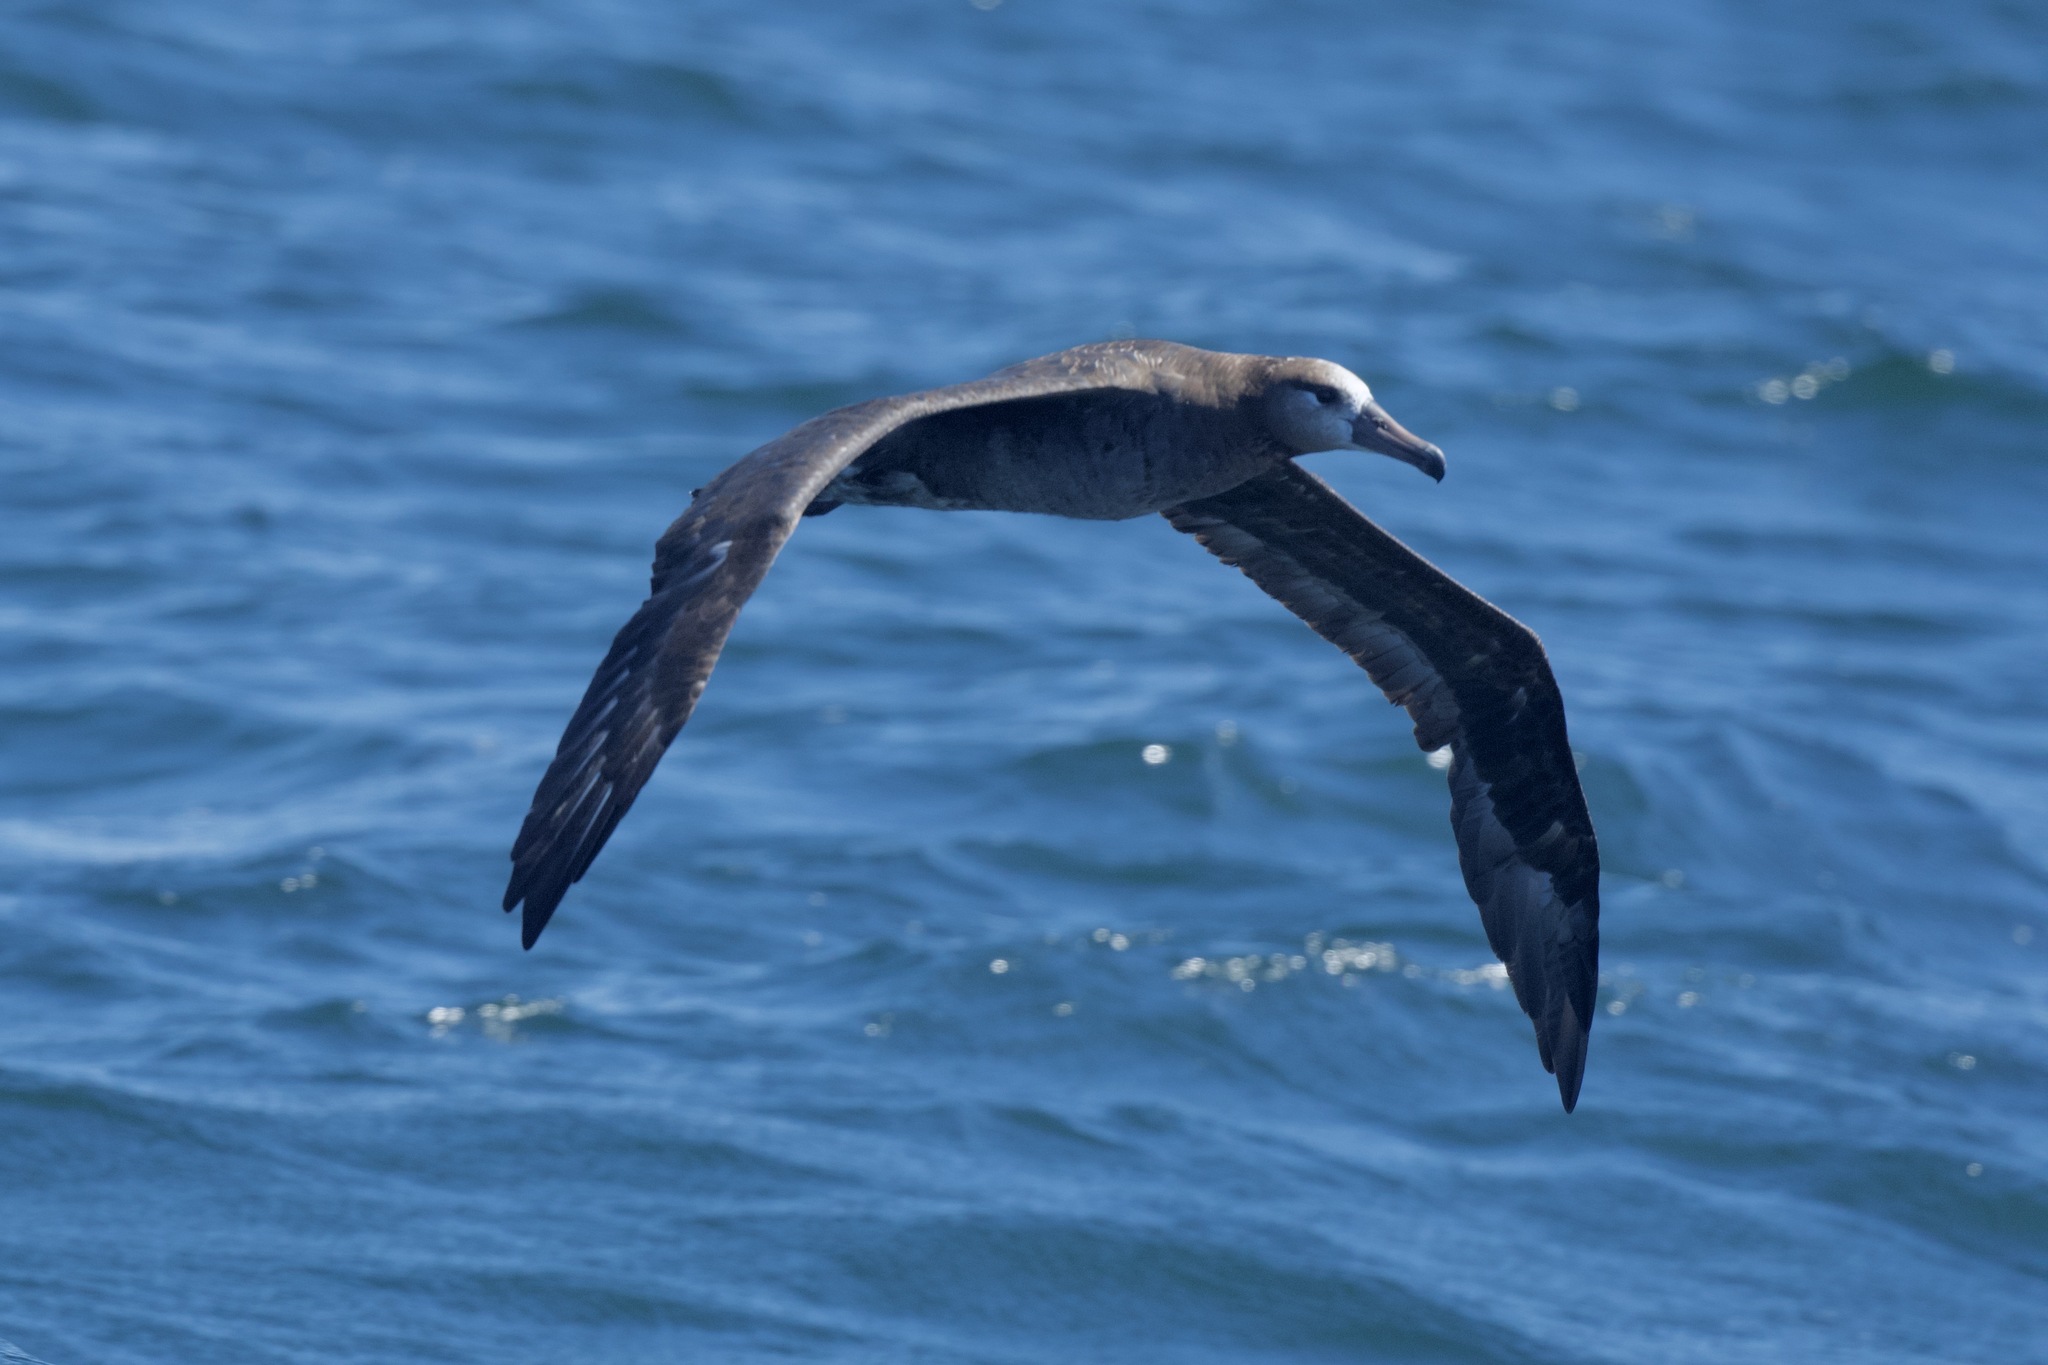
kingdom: Animalia
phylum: Chordata
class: Aves
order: Procellariiformes
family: Diomedeidae
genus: Phoebastria
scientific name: Phoebastria nigripes
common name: Black-footed albatross
